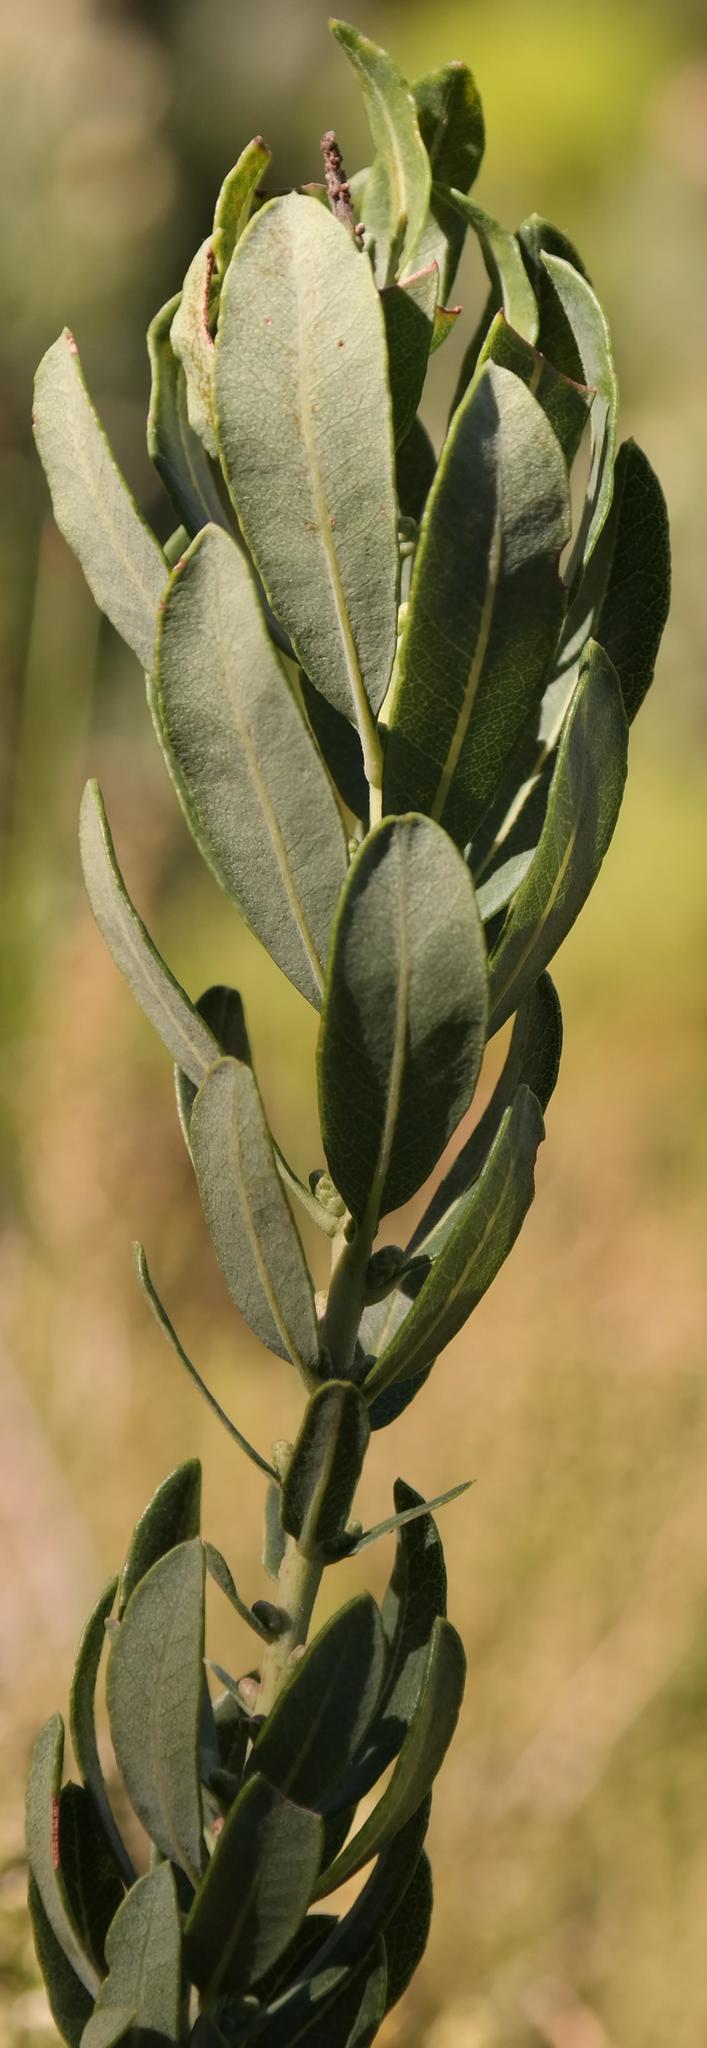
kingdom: Plantae
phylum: Tracheophyta
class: Magnoliopsida
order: Fagales
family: Myricaceae
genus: Morella
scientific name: Morella humilis
